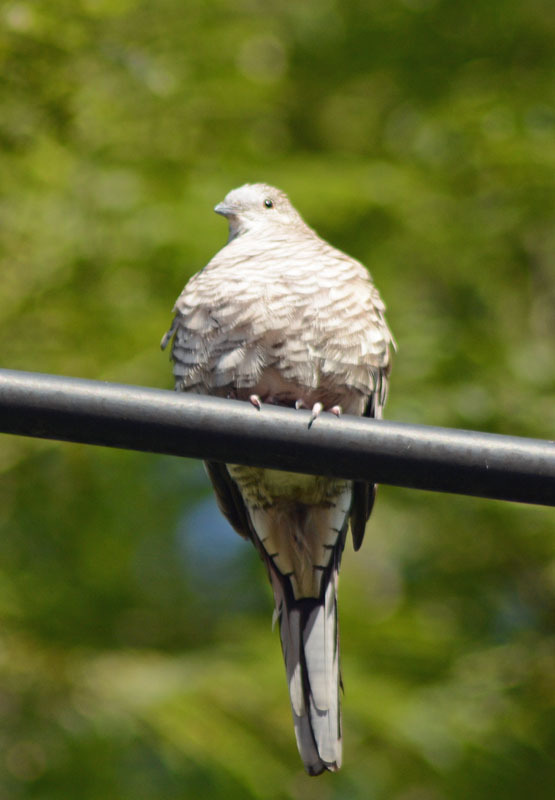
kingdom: Animalia
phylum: Chordata
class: Aves
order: Columbiformes
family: Columbidae
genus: Columbina
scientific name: Columbina inca
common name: Inca dove
